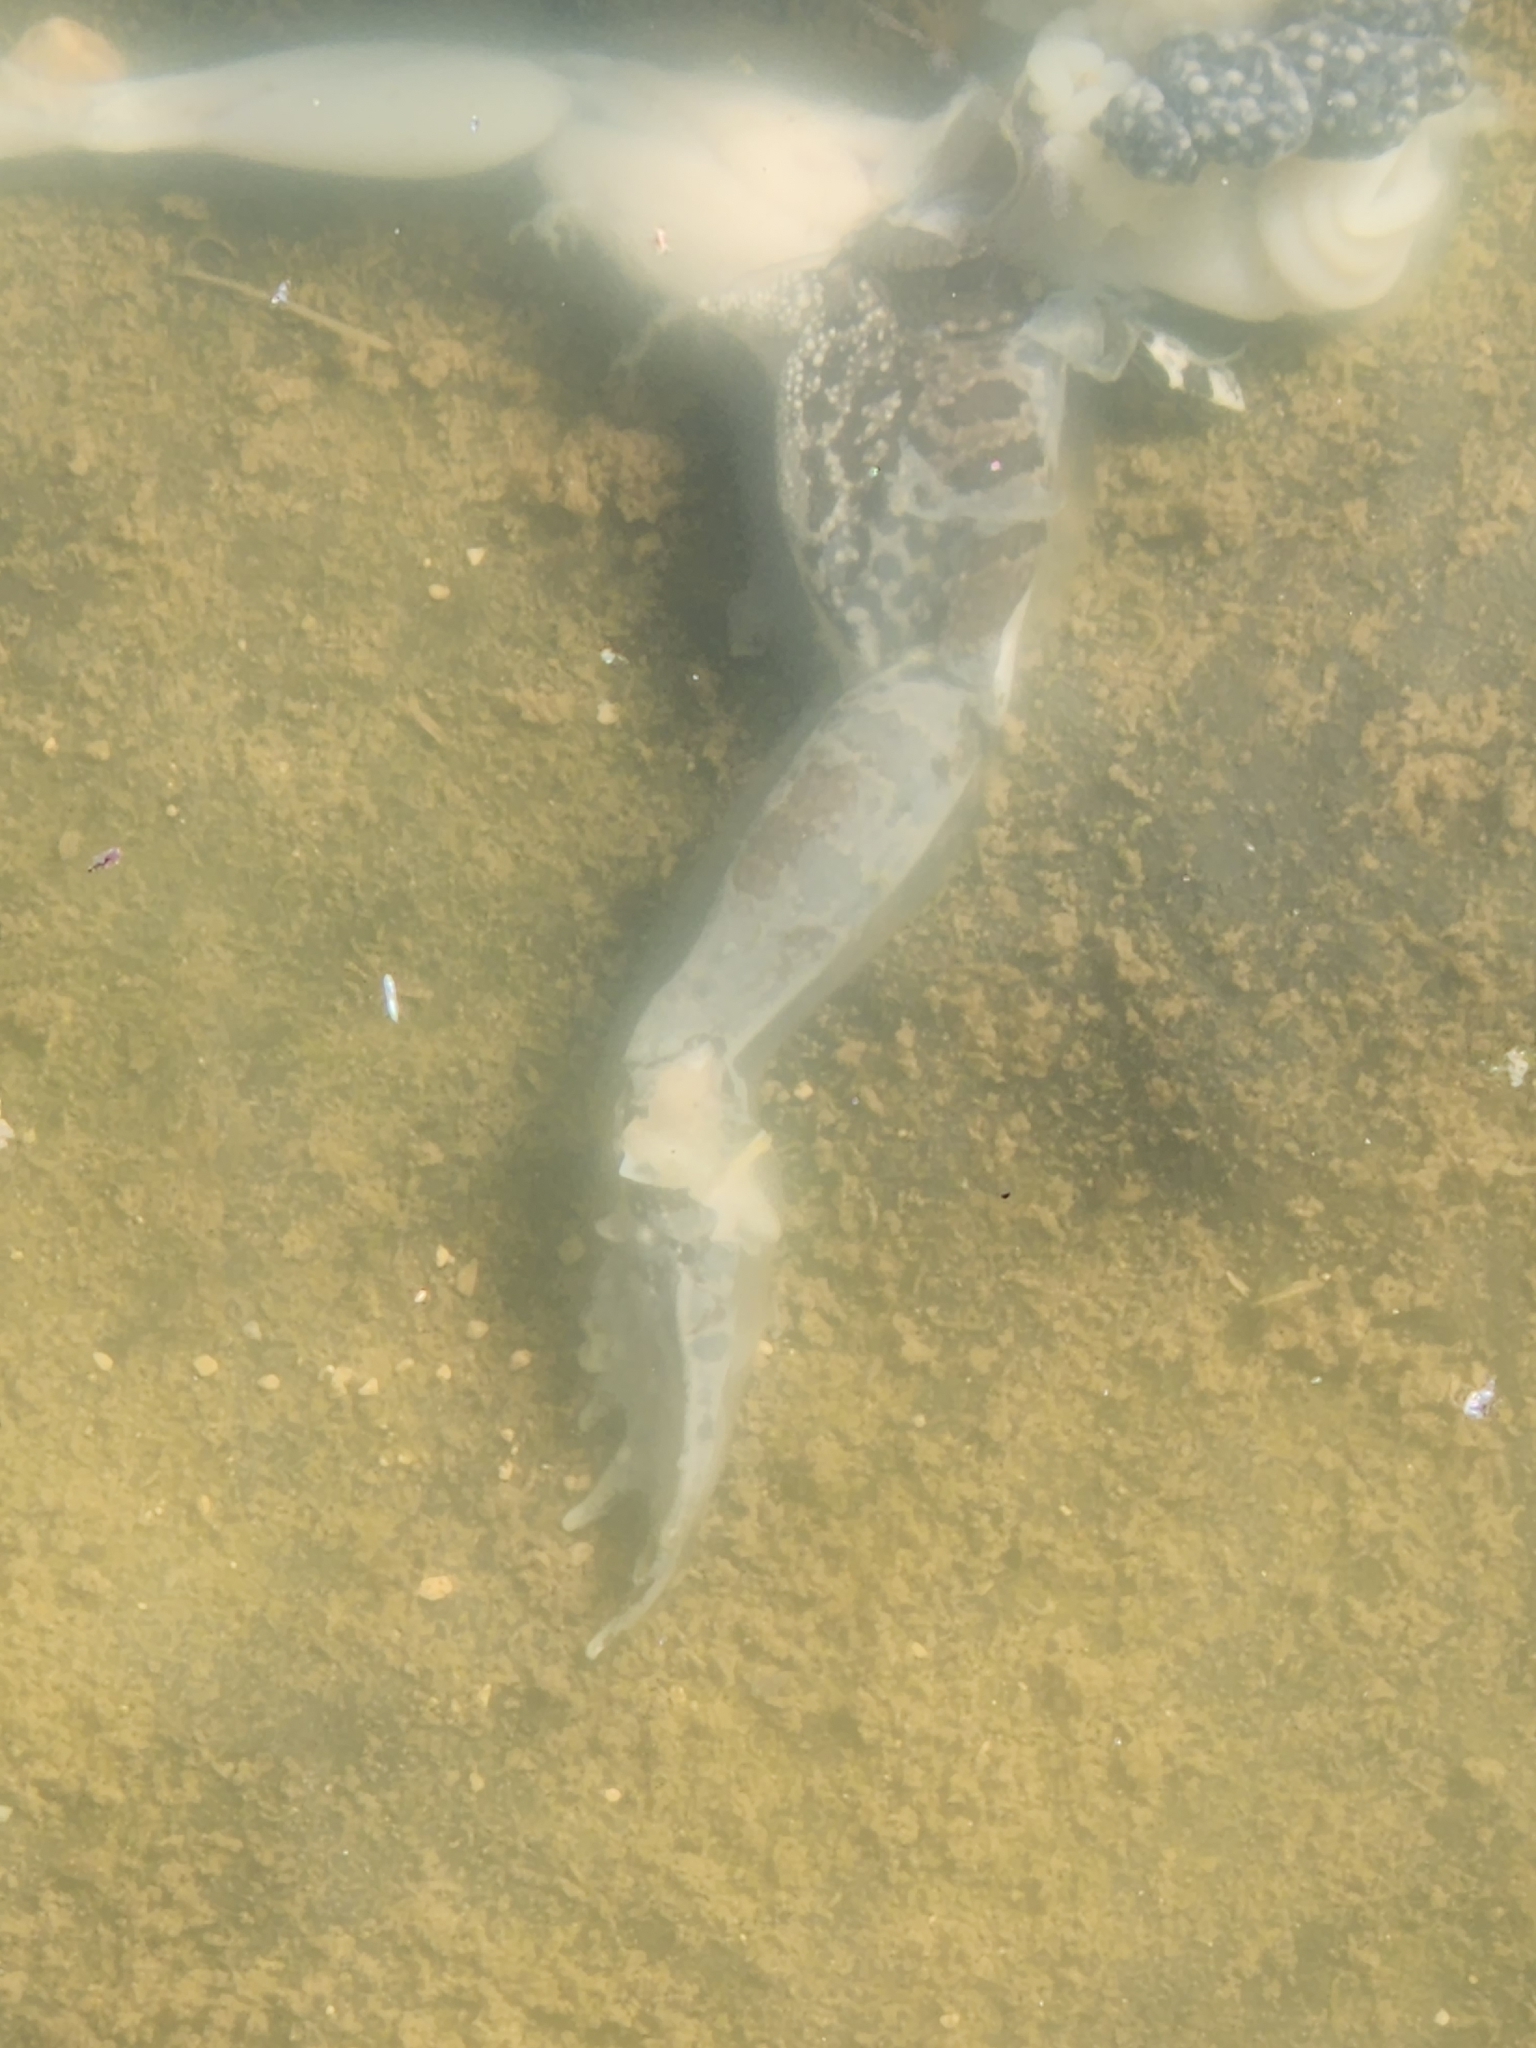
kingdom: Animalia
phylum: Chordata
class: Amphibia
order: Anura
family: Ranidae
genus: Lithobates
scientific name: Lithobates berlandieri
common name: Rio grande leopard frog
